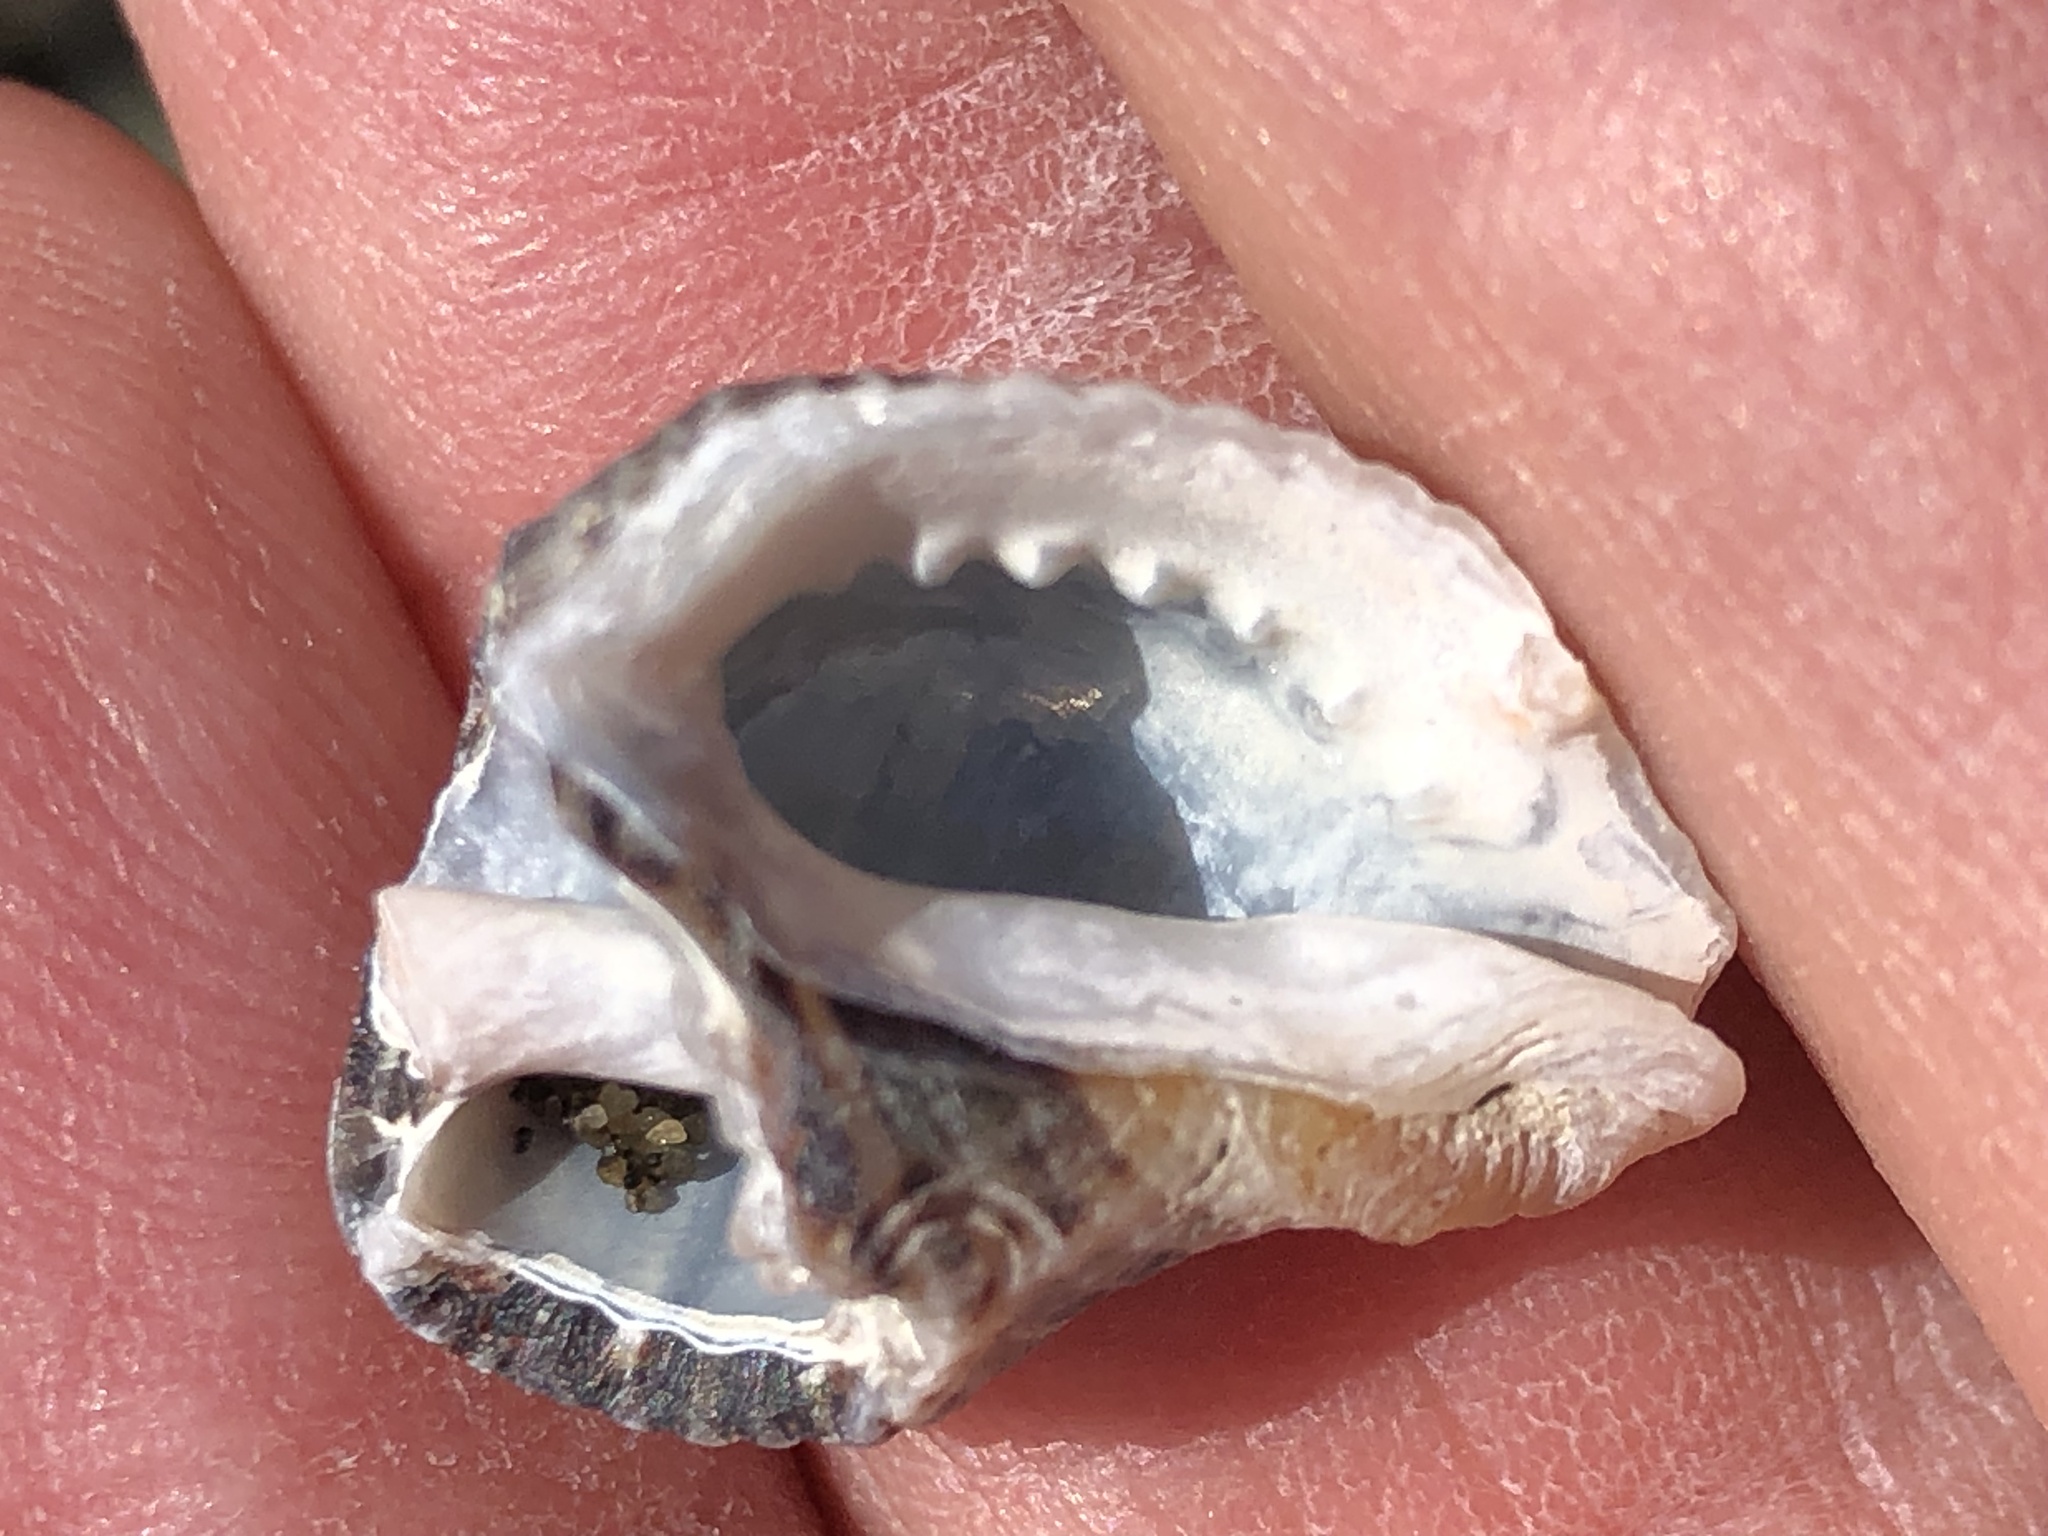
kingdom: Animalia
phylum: Mollusca
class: Gastropoda
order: Neogastropoda
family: Muricidae
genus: Acanthinucella
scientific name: Acanthinucella spirata
